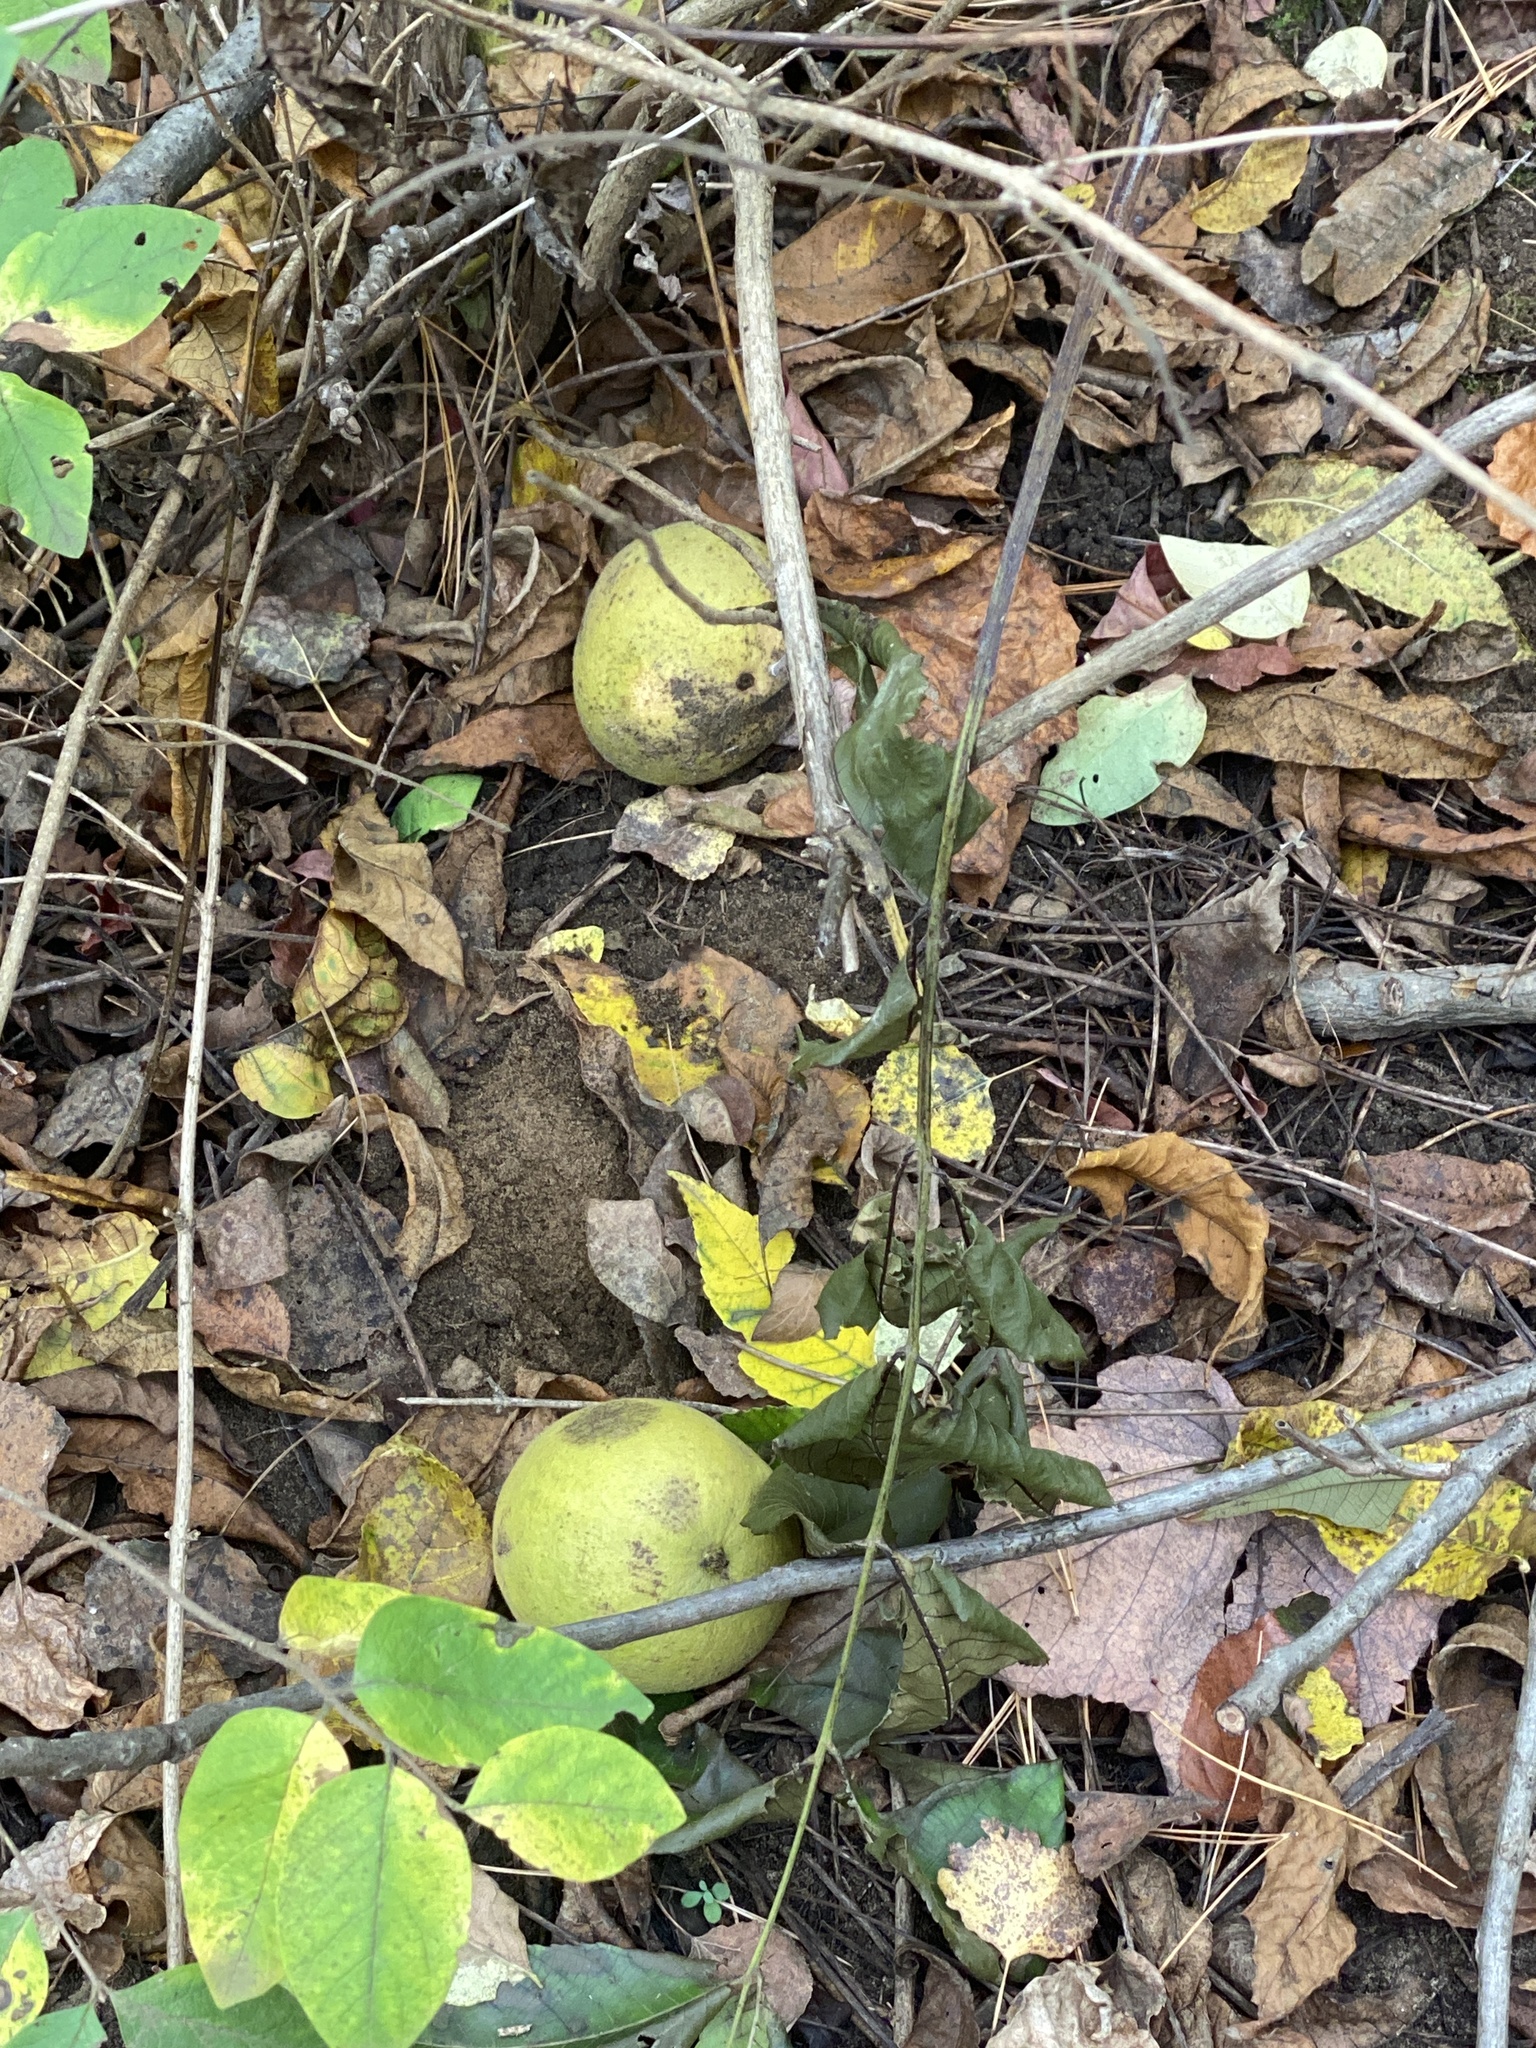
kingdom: Plantae
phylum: Tracheophyta
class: Magnoliopsida
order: Fagales
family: Juglandaceae
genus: Juglans
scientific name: Juglans nigra
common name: Black walnut
